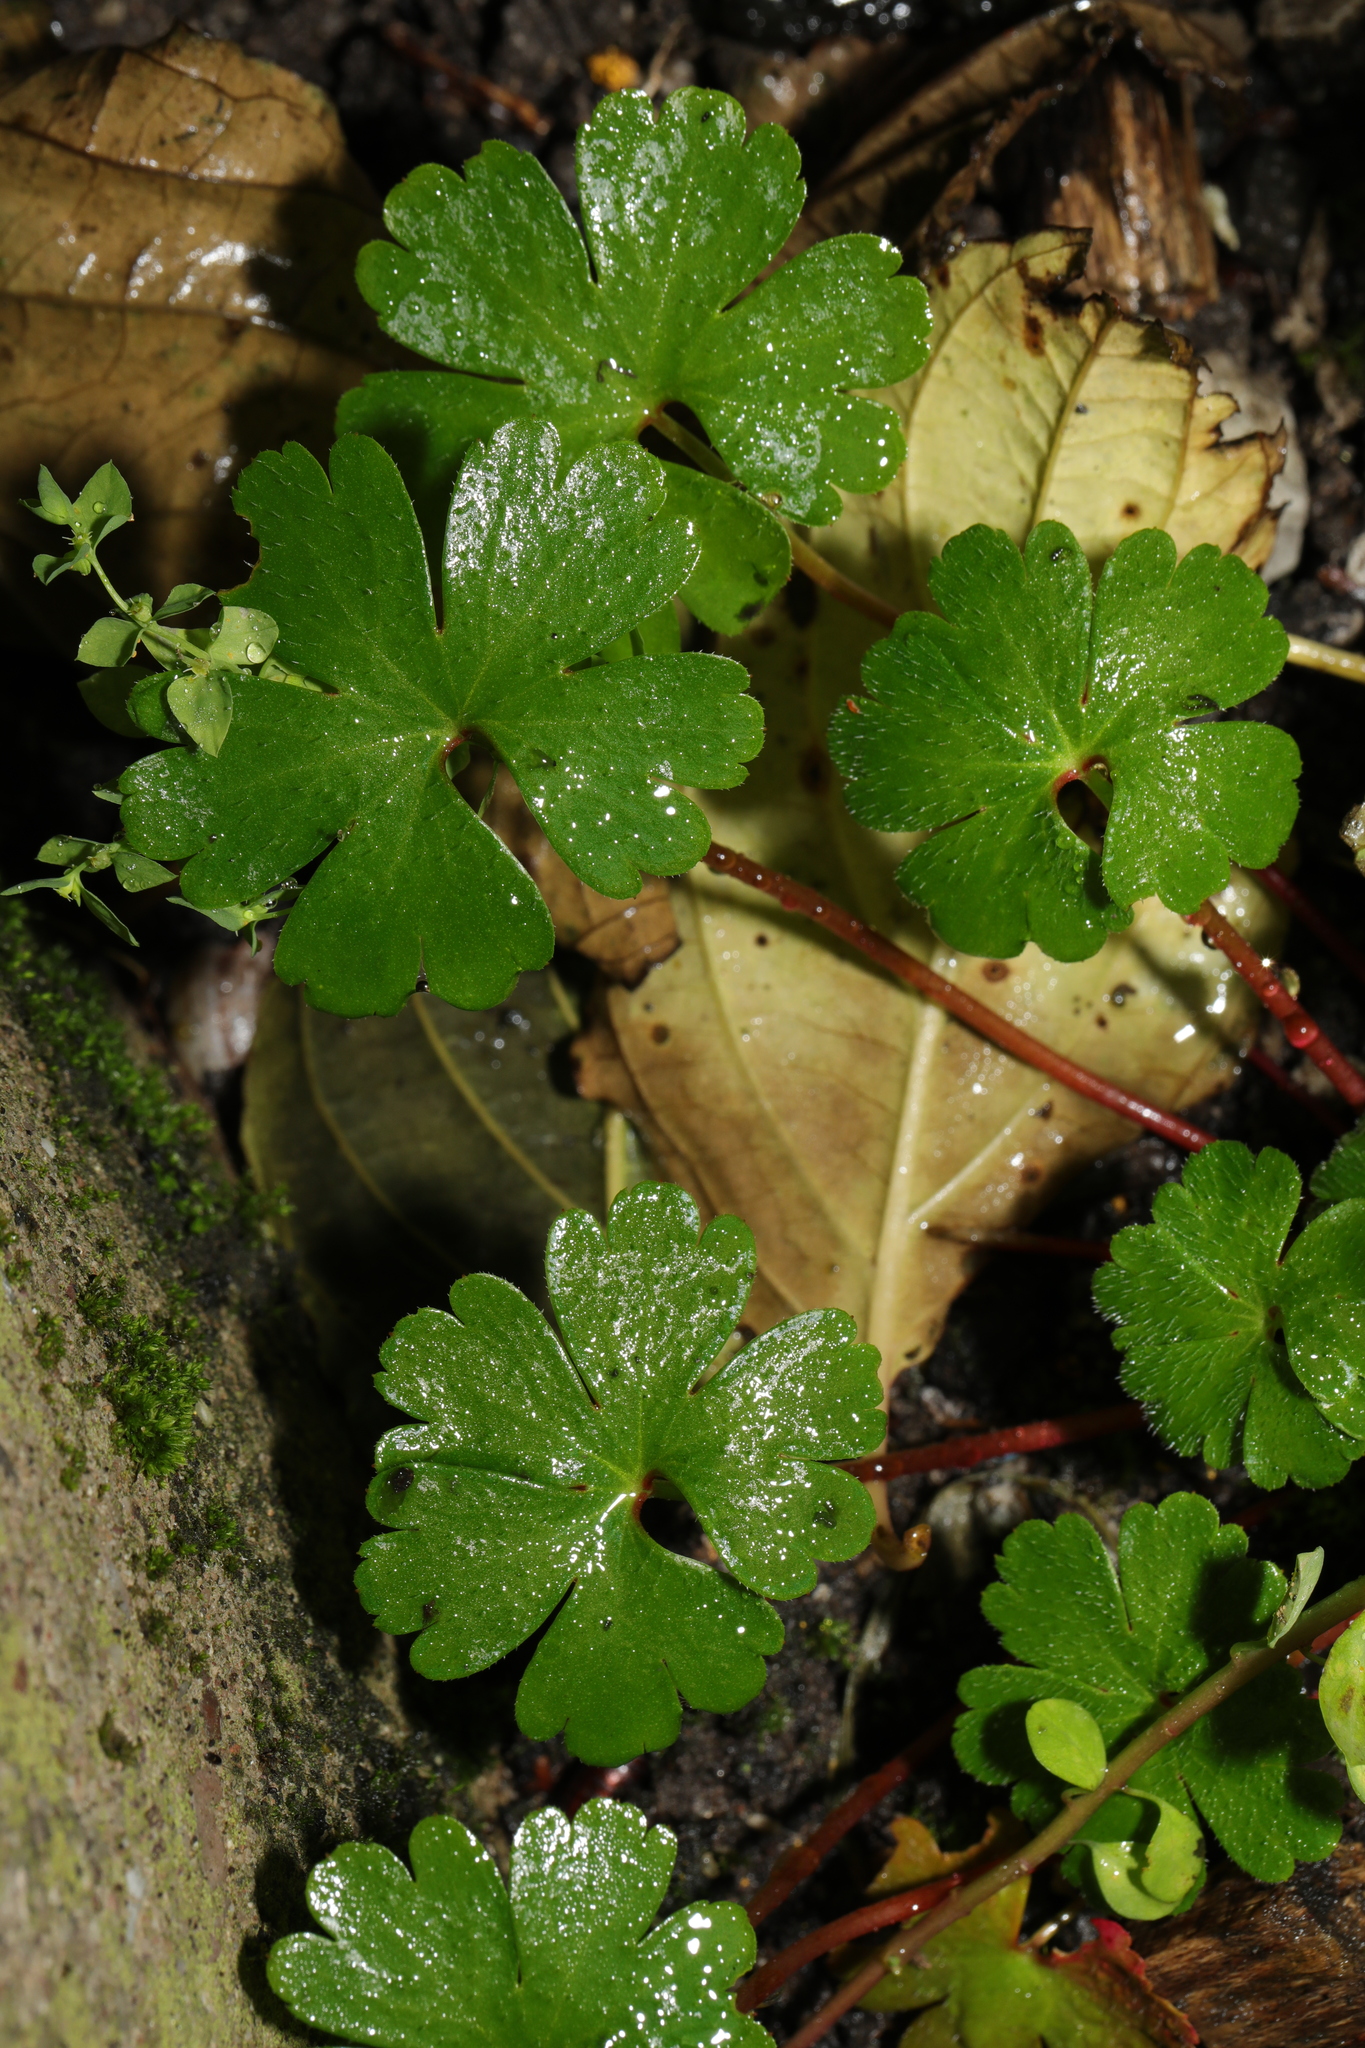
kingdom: Plantae
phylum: Tracheophyta
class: Magnoliopsida
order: Geraniales
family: Geraniaceae
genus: Geranium
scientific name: Geranium lucidum
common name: Shining crane's-bill
